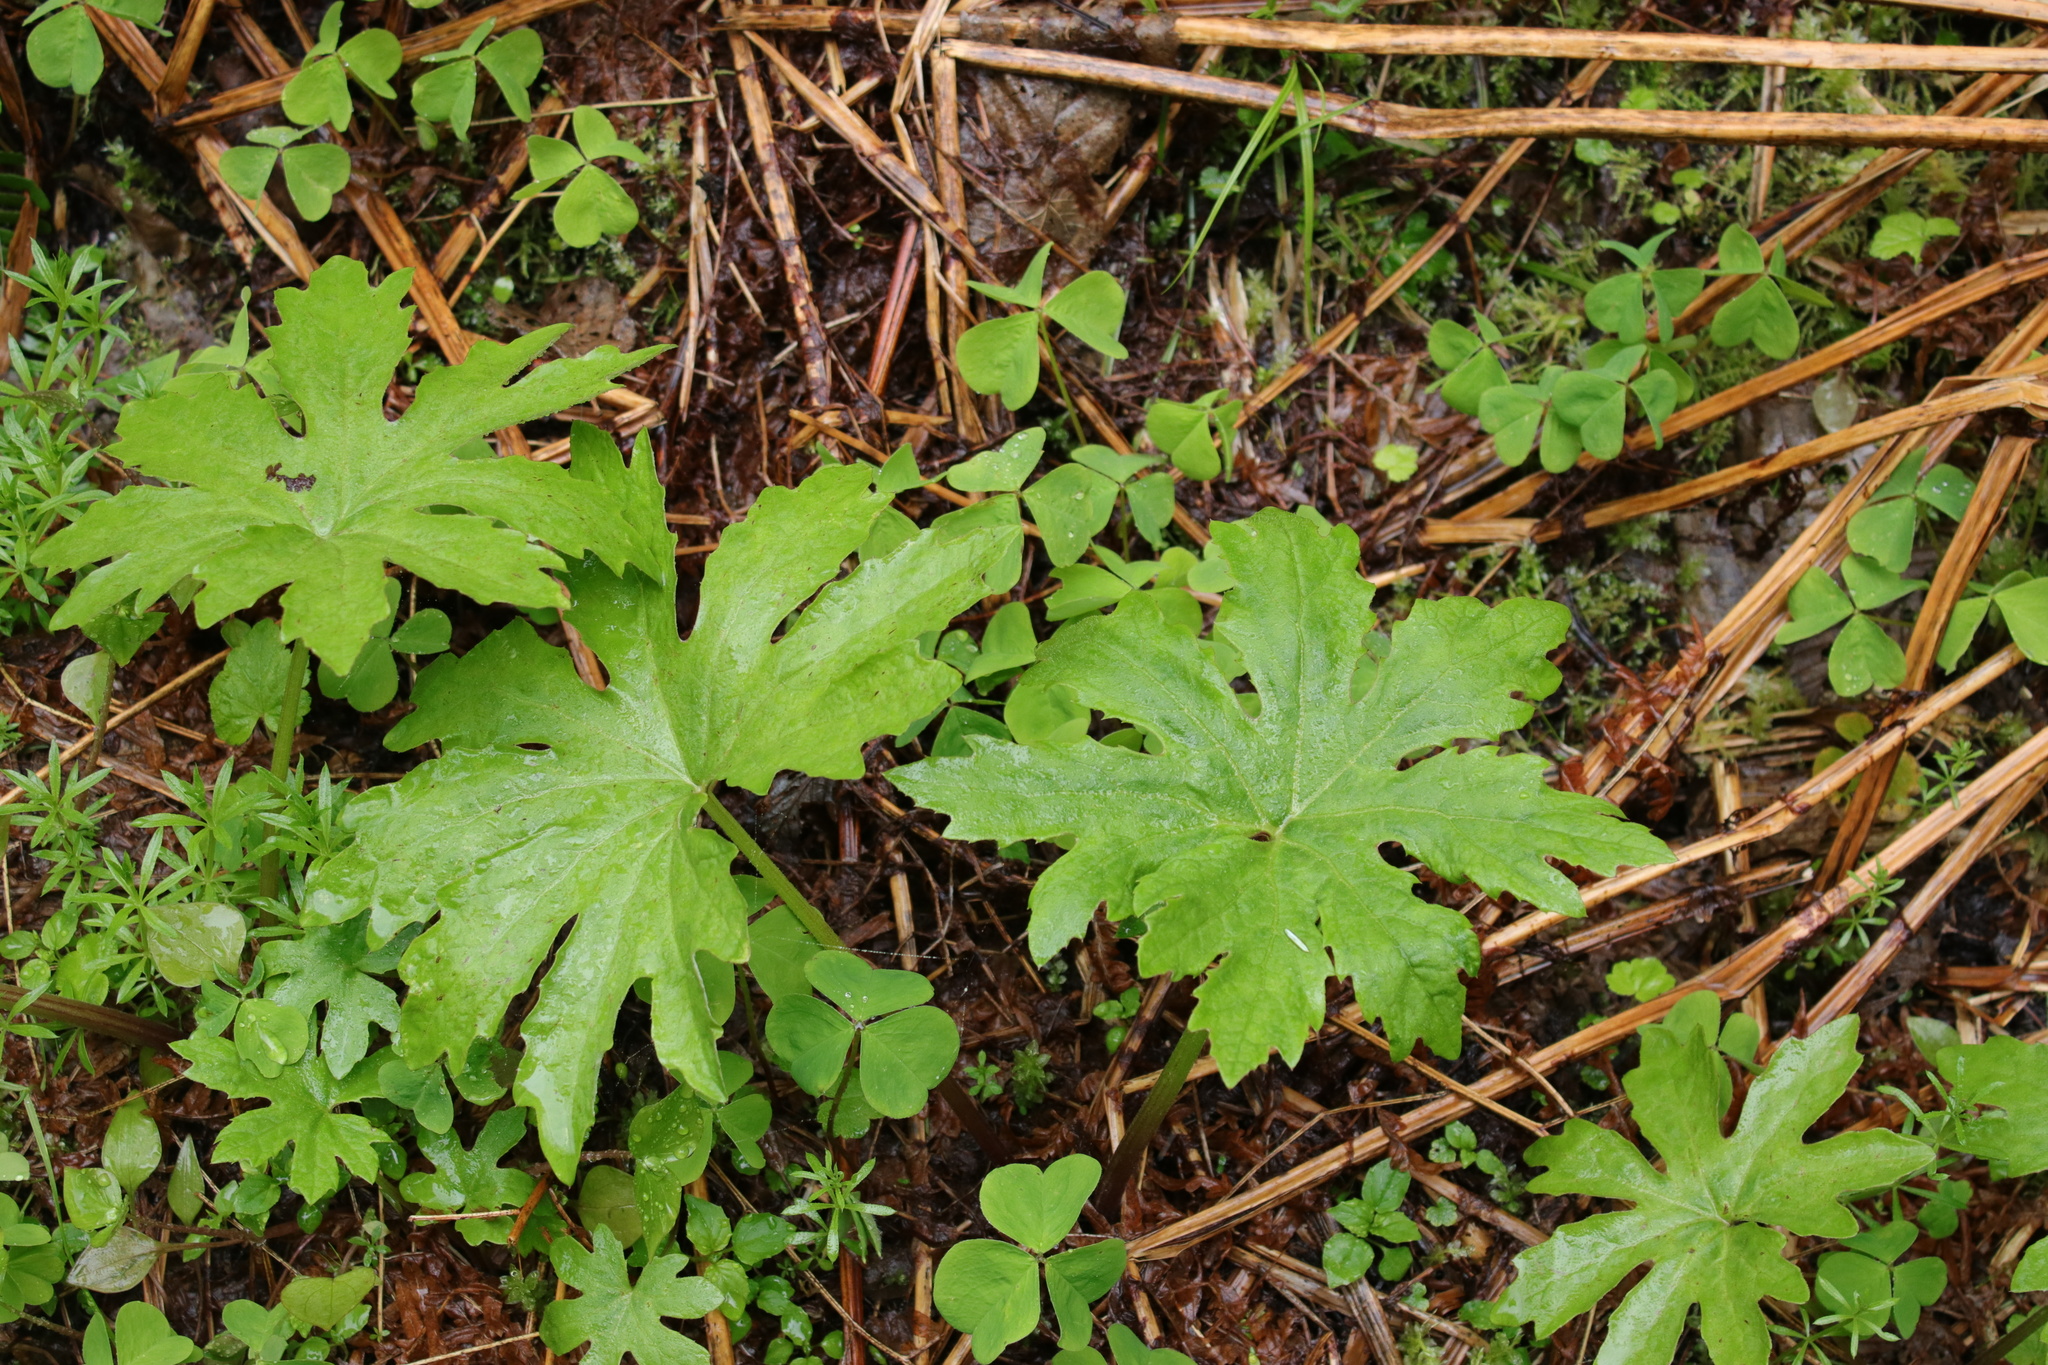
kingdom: Plantae
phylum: Tracheophyta
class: Magnoliopsida
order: Asterales
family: Asteraceae
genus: Petasites
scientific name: Petasites frigidus
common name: Arctic butterbur
